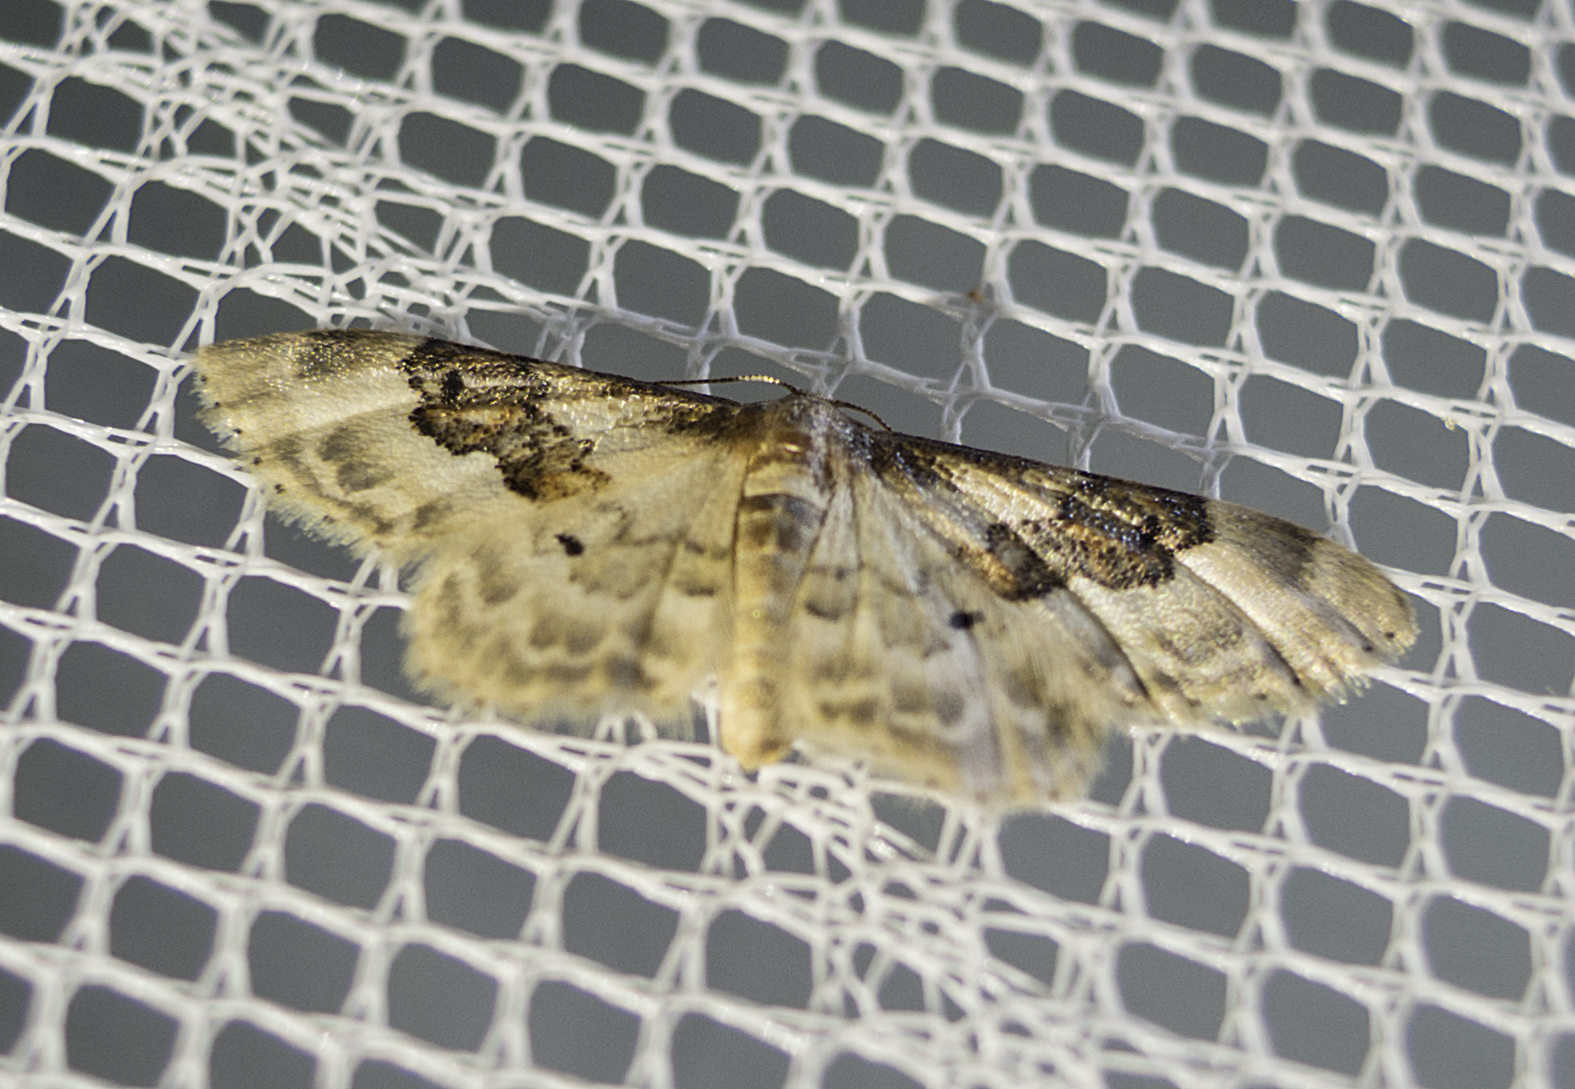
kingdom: Animalia
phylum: Arthropoda
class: Insecta
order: Lepidoptera
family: Geometridae
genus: Idaea
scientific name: Idaea rusticata
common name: Least carpet
